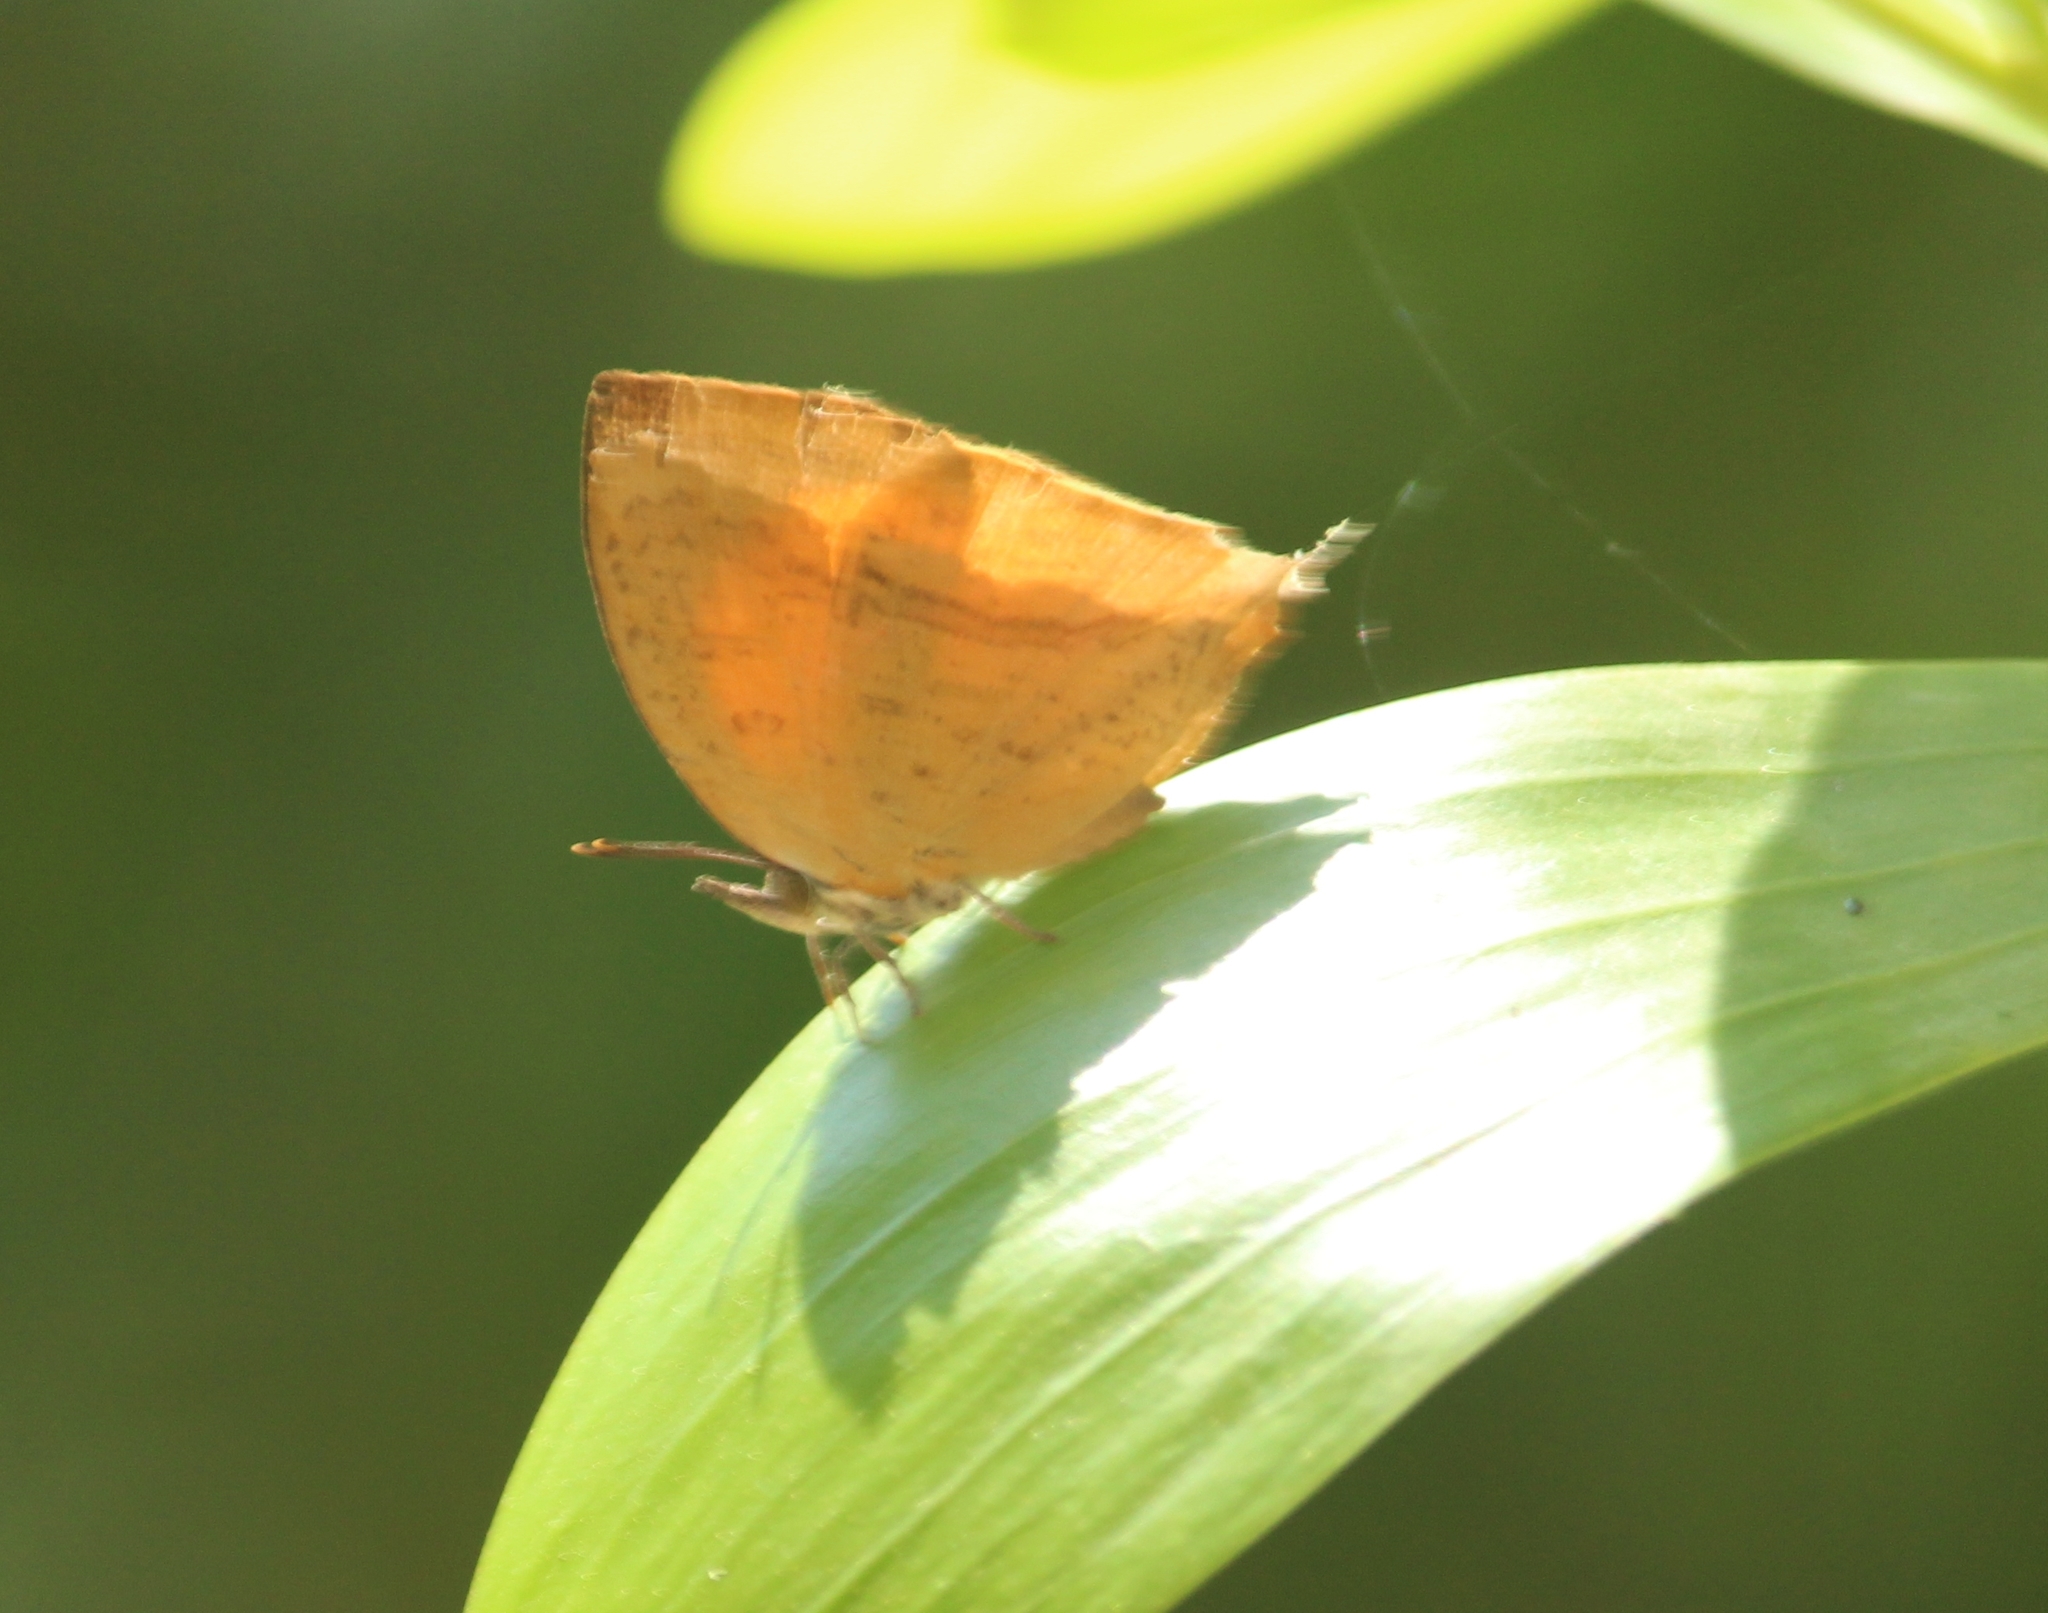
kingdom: Animalia
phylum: Arthropoda
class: Insecta
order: Lepidoptera
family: Lycaenidae
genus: Loxura
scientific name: Loxura atymnus
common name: Common yamfly
